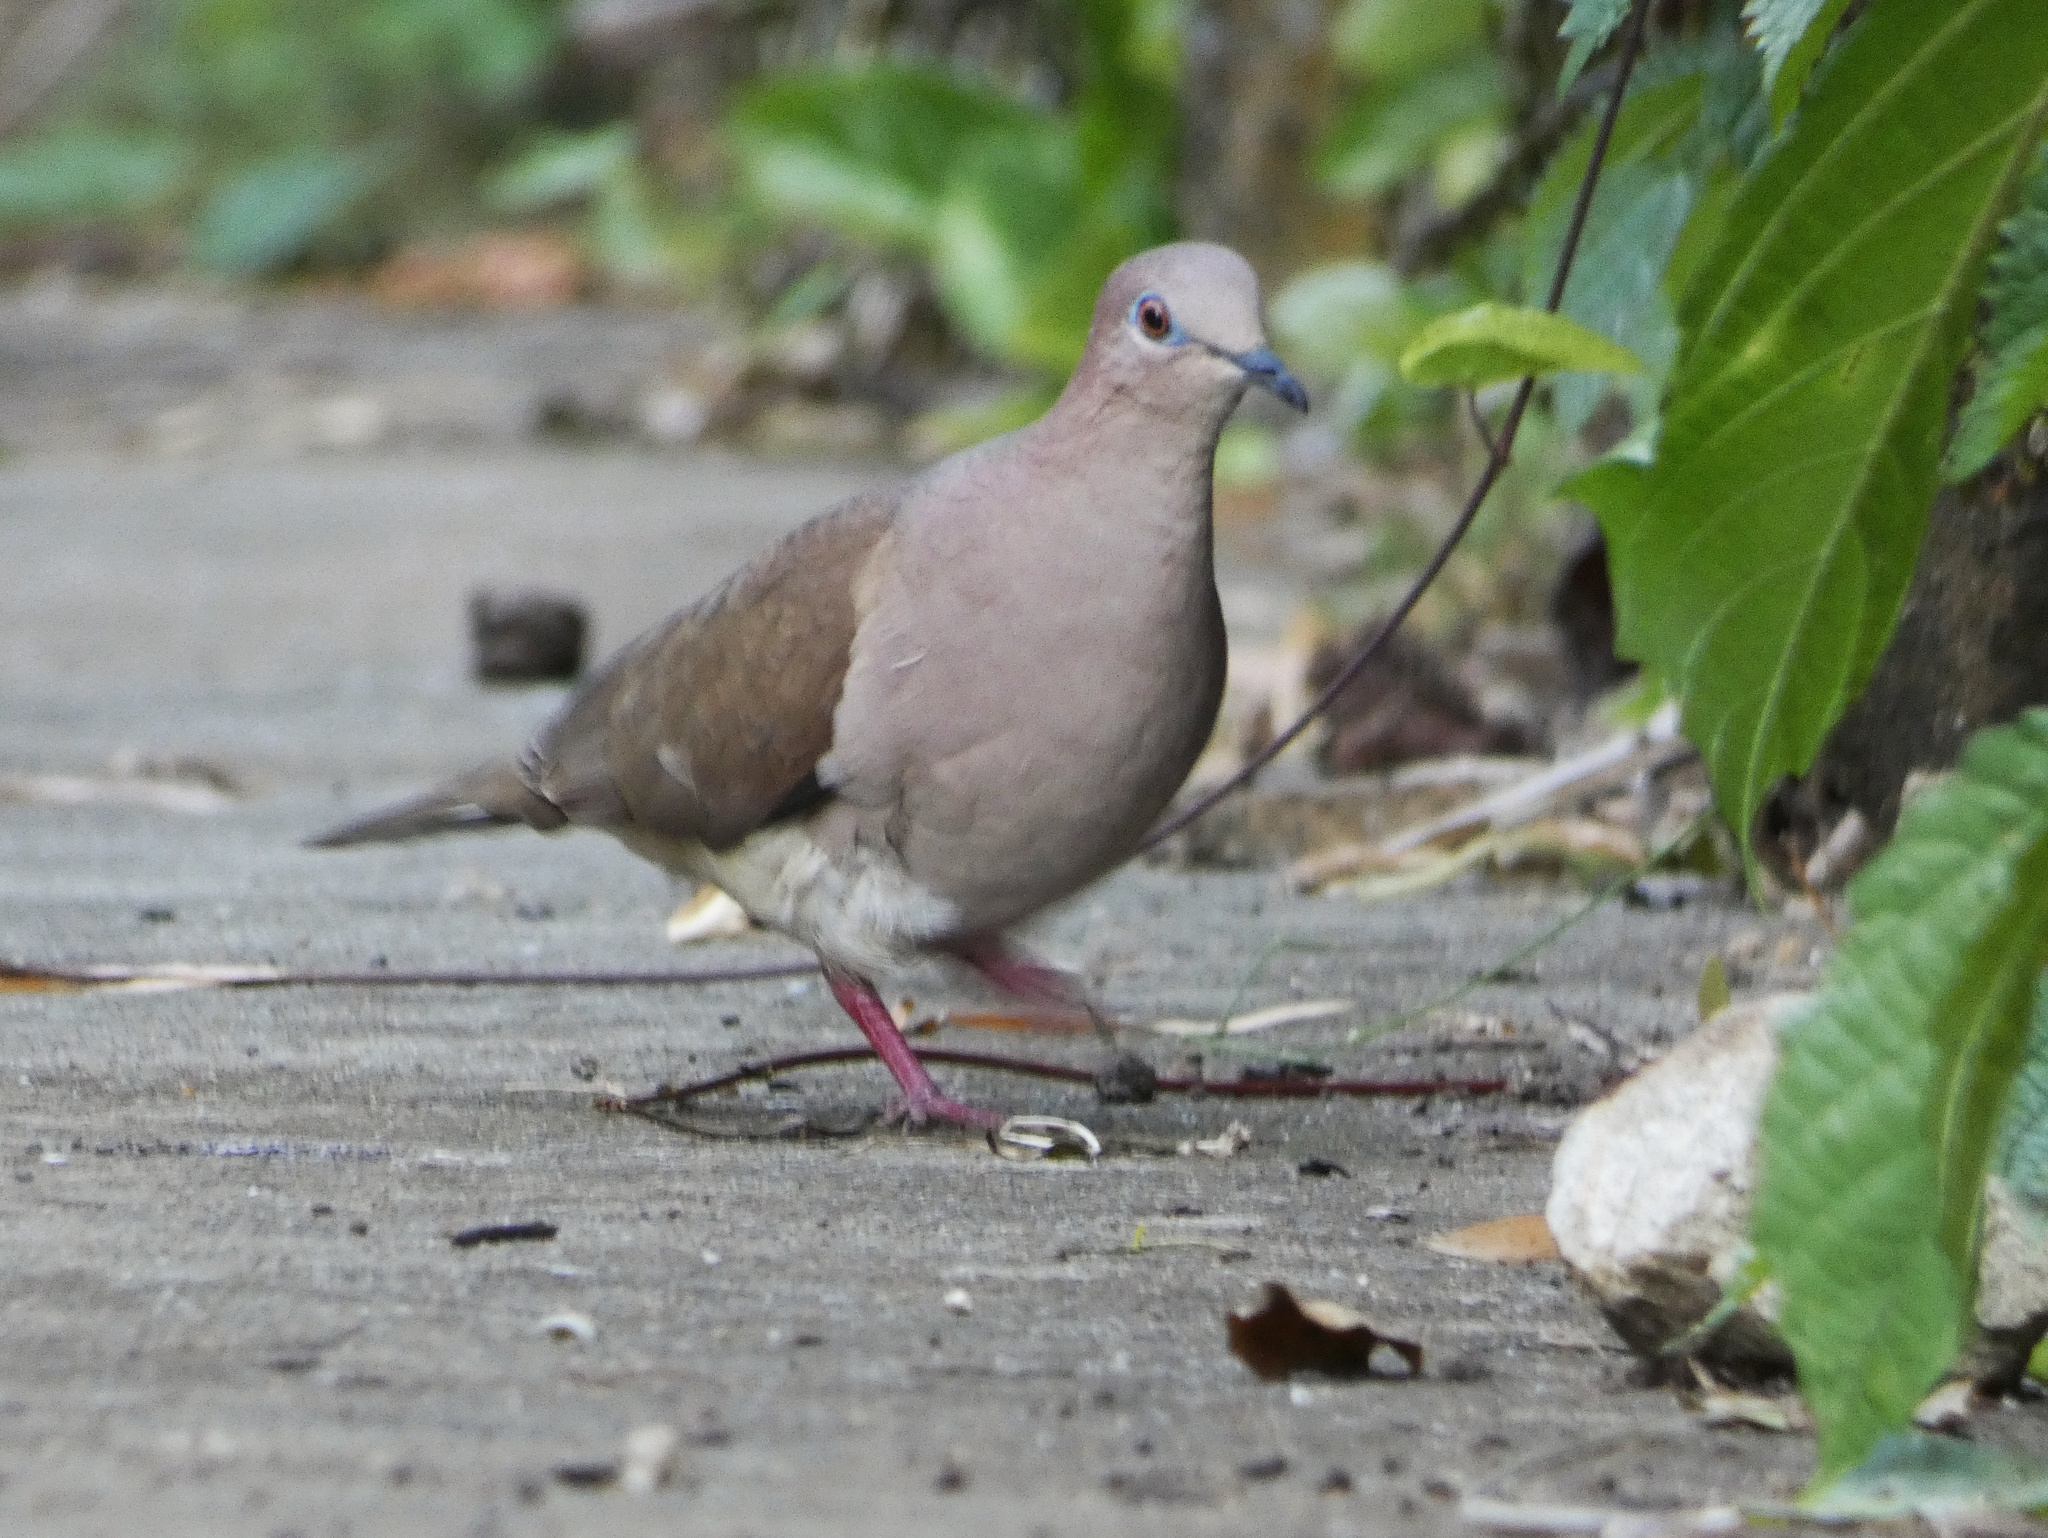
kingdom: Animalia
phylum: Chordata
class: Aves
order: Columbiformes
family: Columbidae
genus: Leptotila
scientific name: Leptotila verreauxi
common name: White-tipped dove
